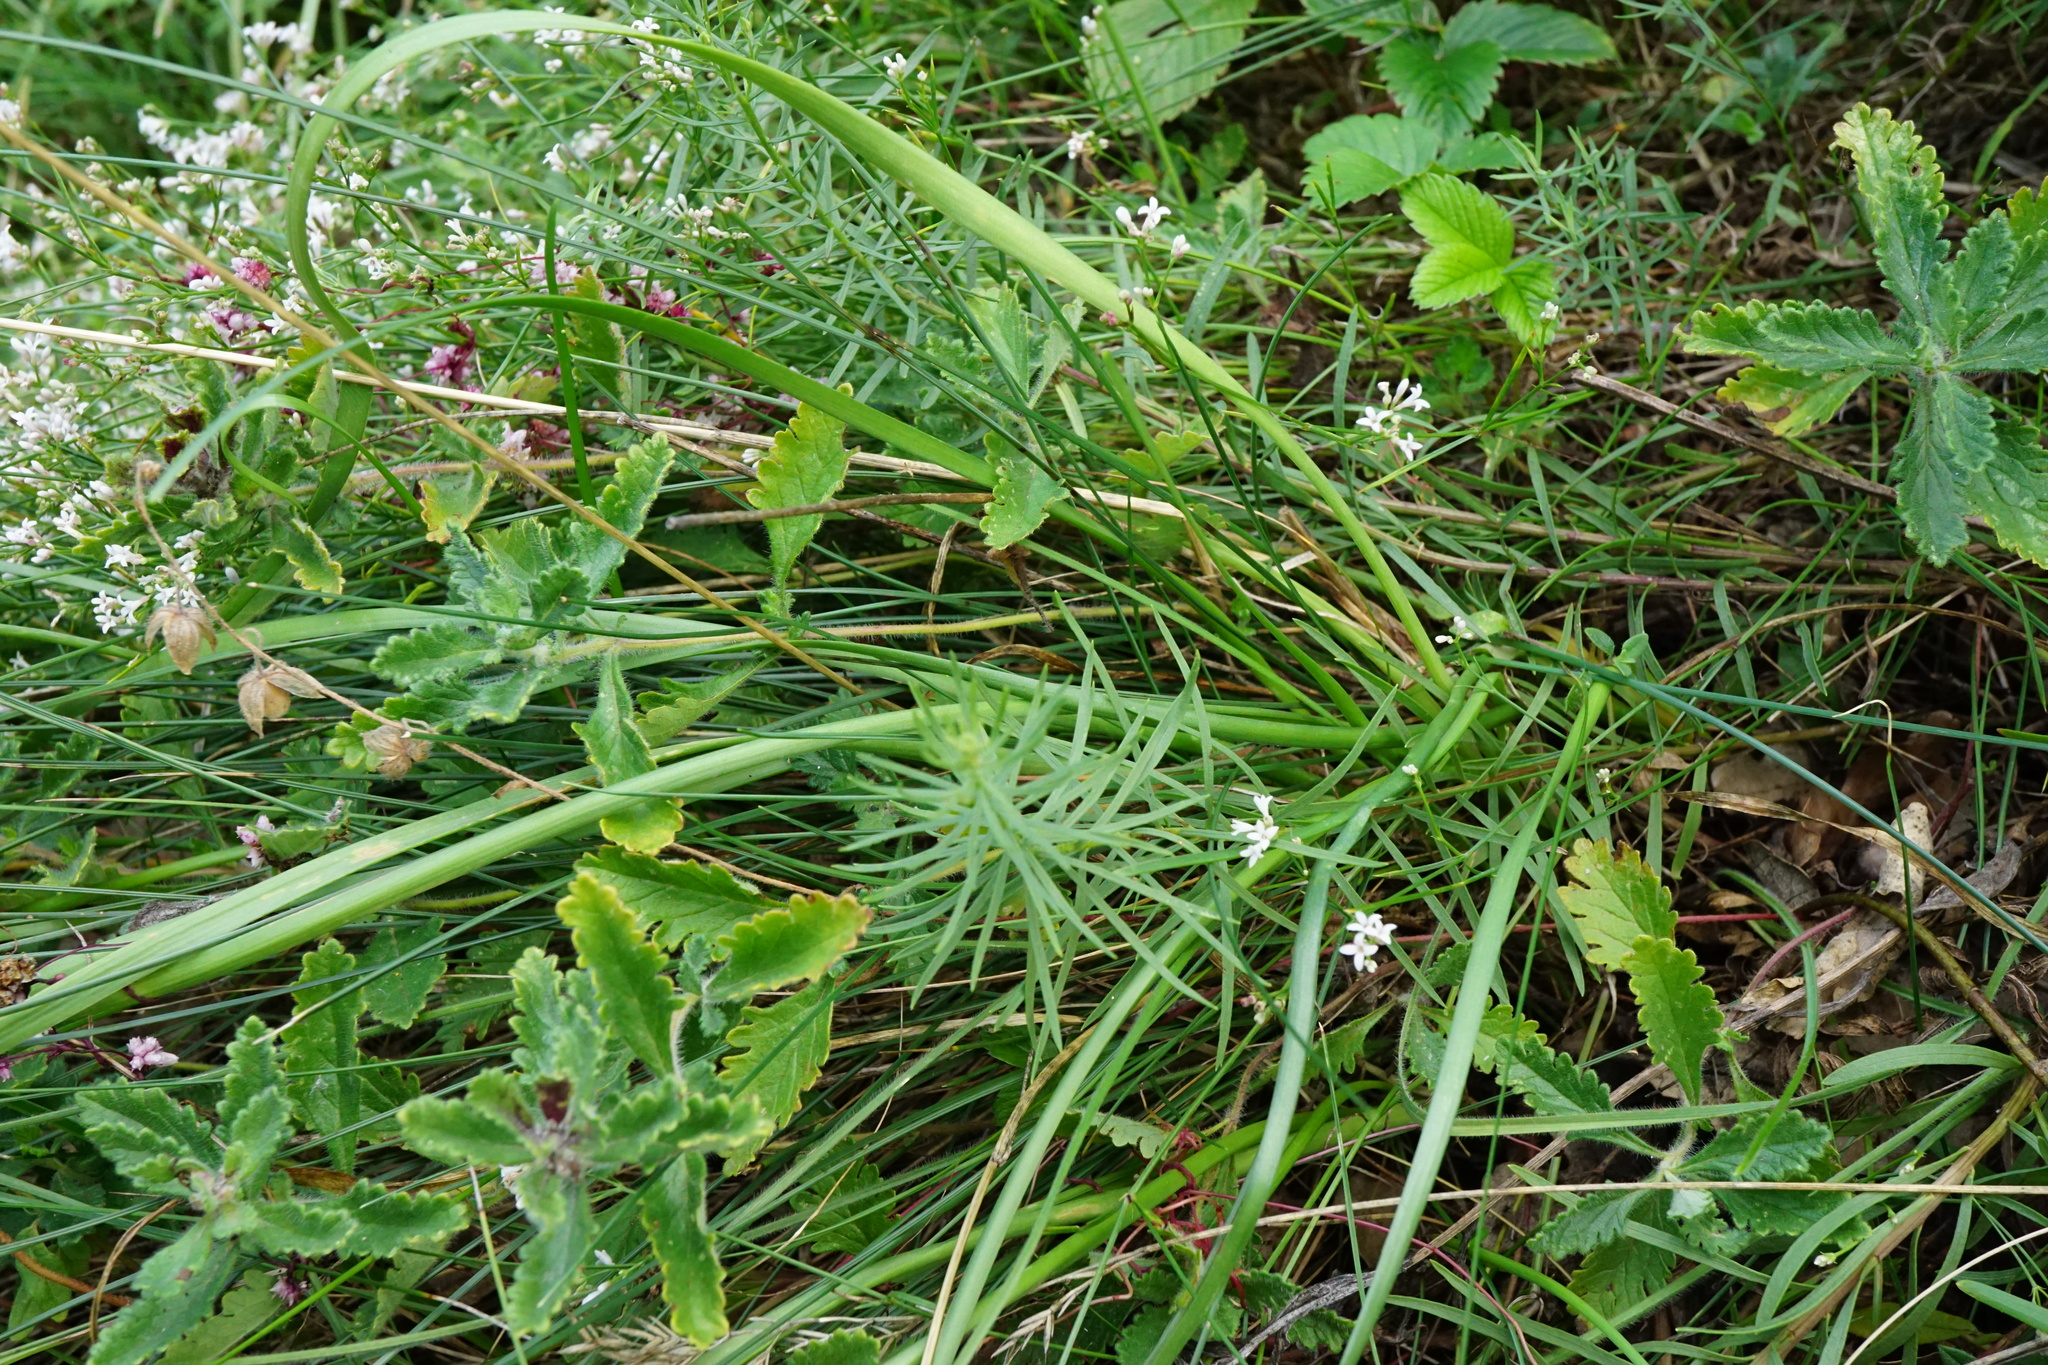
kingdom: Plantae
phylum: Tracheophyta
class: Liliopsida
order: Asparagales
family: Amaryllidaceae
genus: Allium
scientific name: Allium lusitanicum
